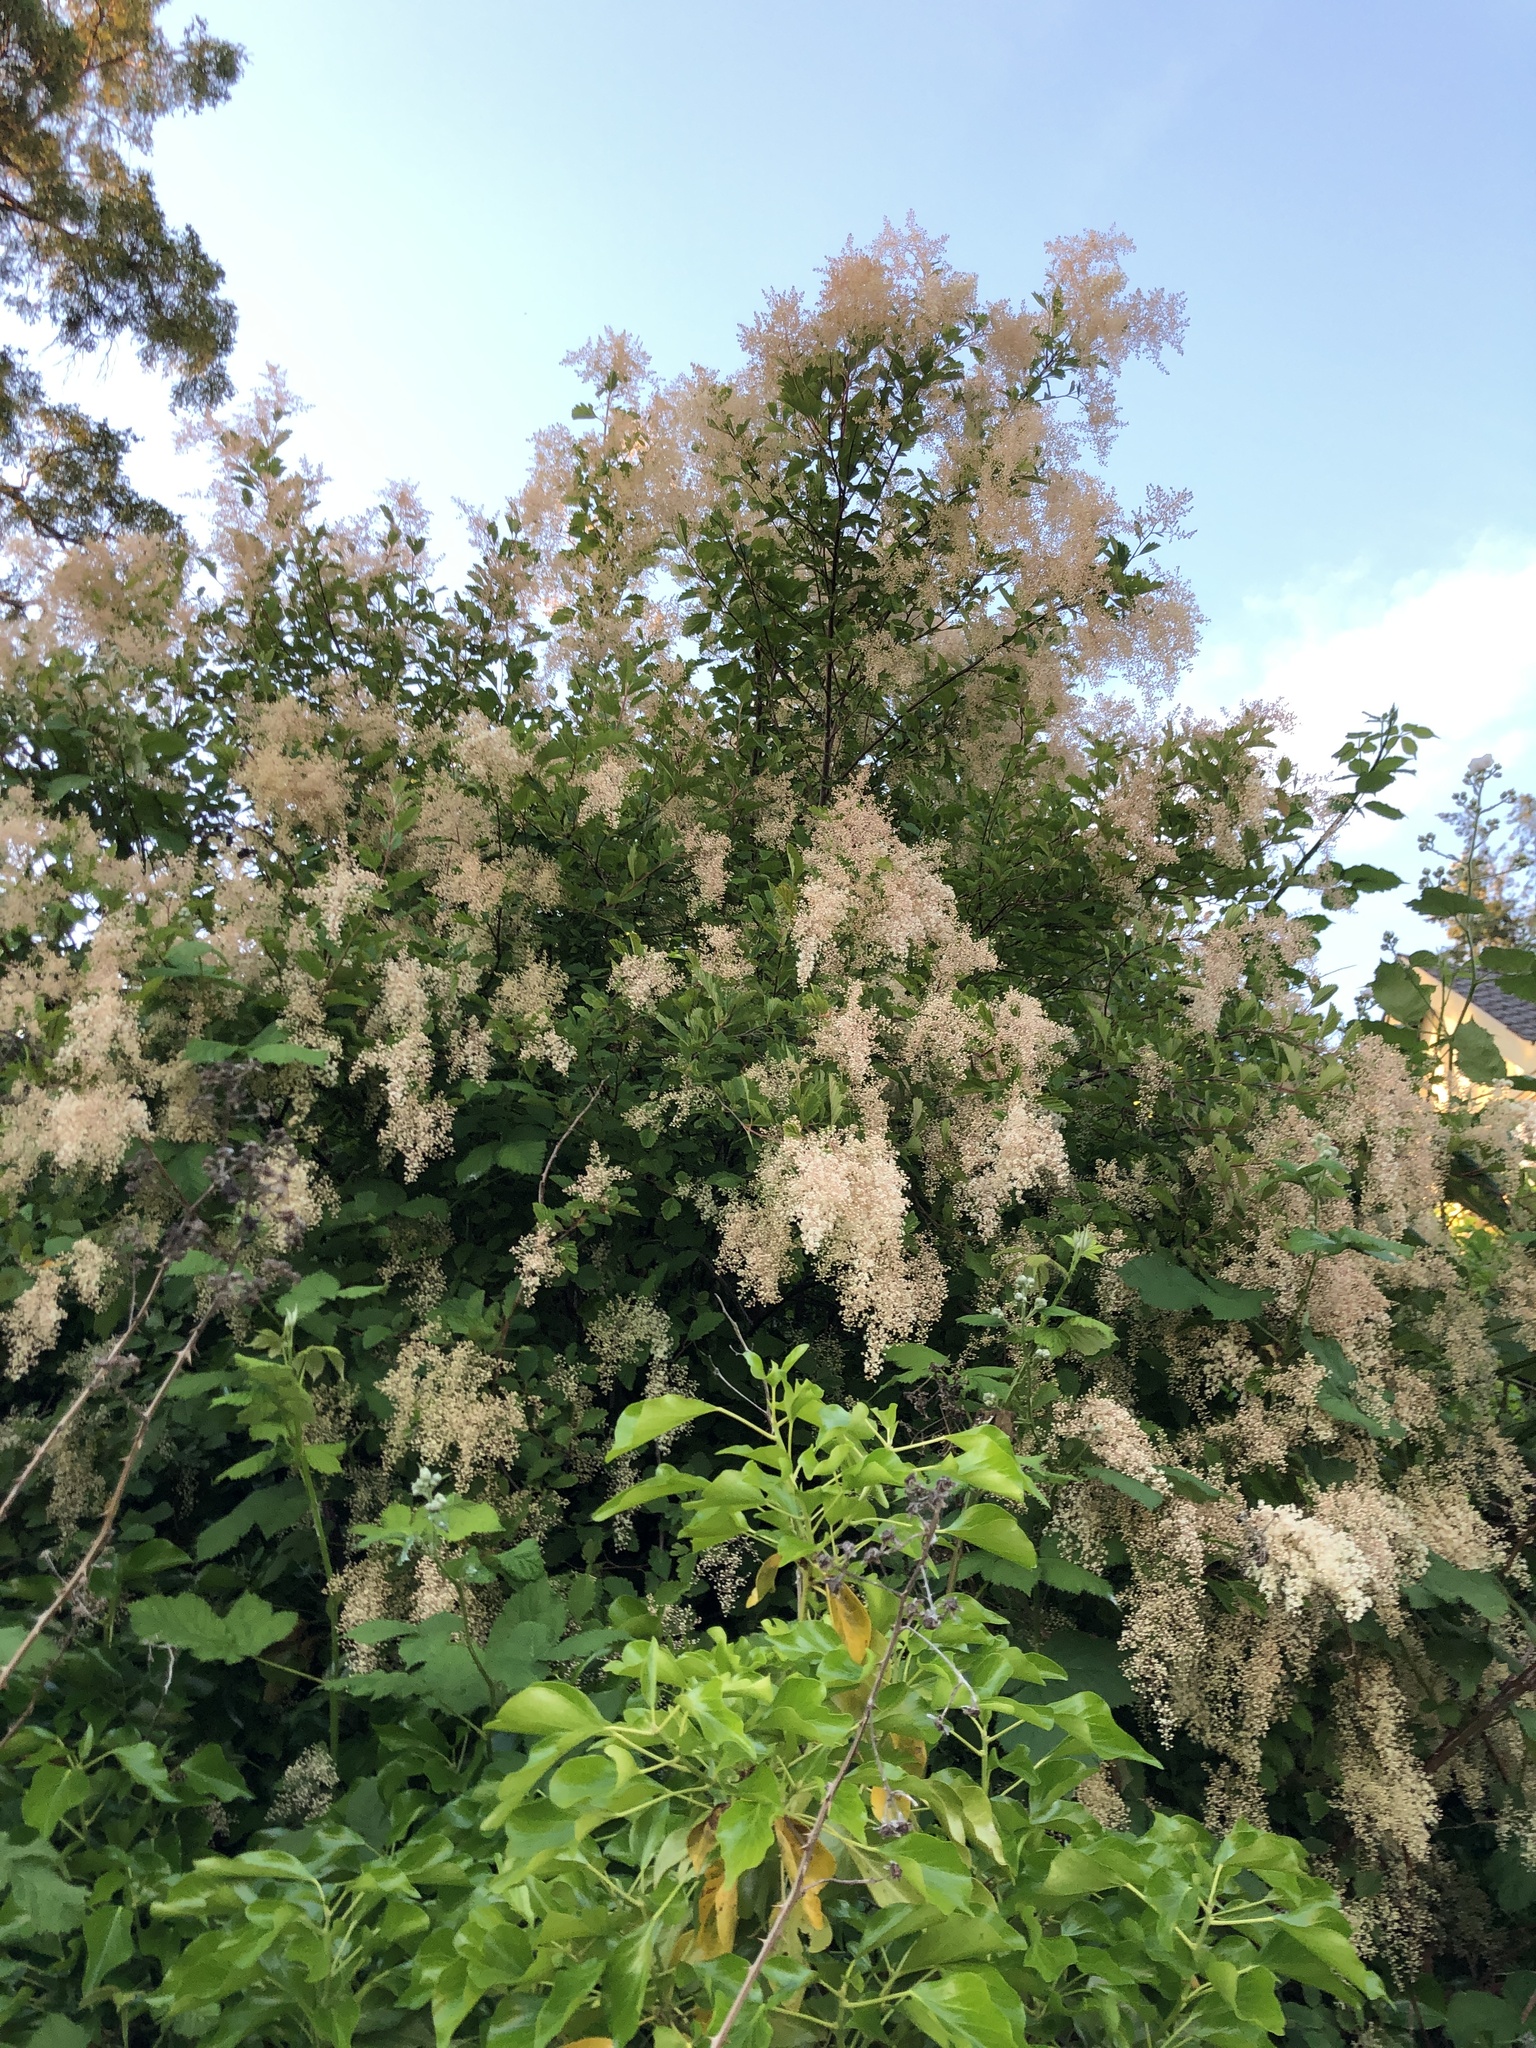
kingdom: Plantae
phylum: Tracheophyta
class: Magnoliopsida
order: Rosales
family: Rosaceae
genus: Holodiscus
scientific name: Holodiscus discolor
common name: Oceanspray
